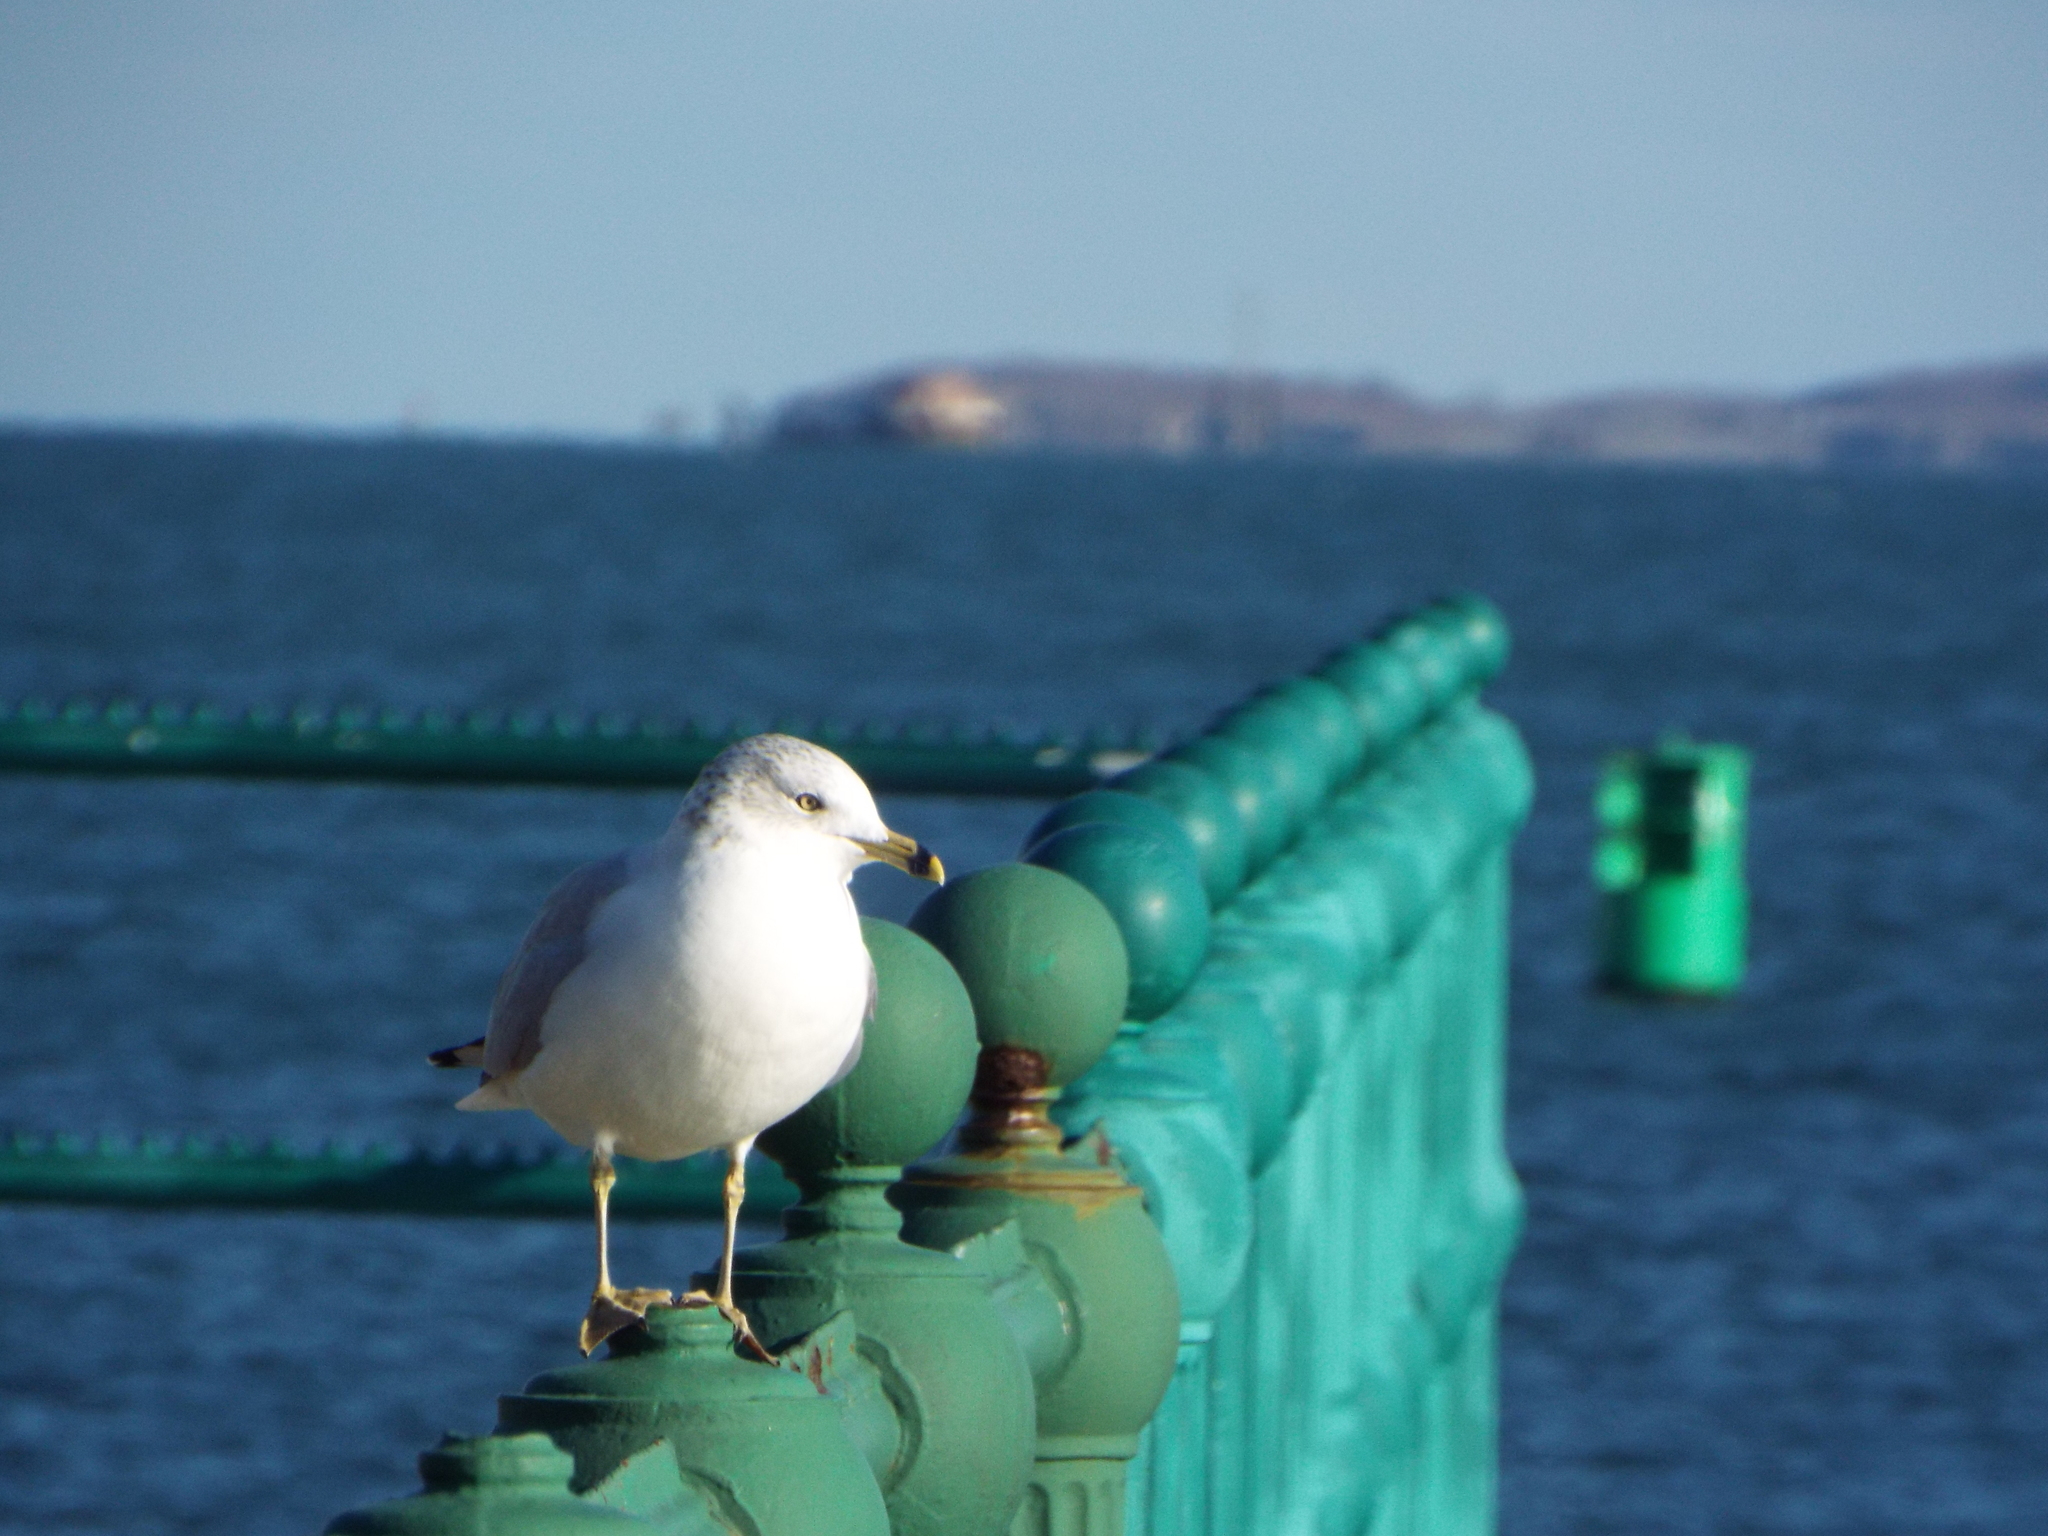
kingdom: Animalia
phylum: Chordata
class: Aves
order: Charadriiformes
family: Laridae
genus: Larus
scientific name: Larus delawarensis
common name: Ring-billed gull
